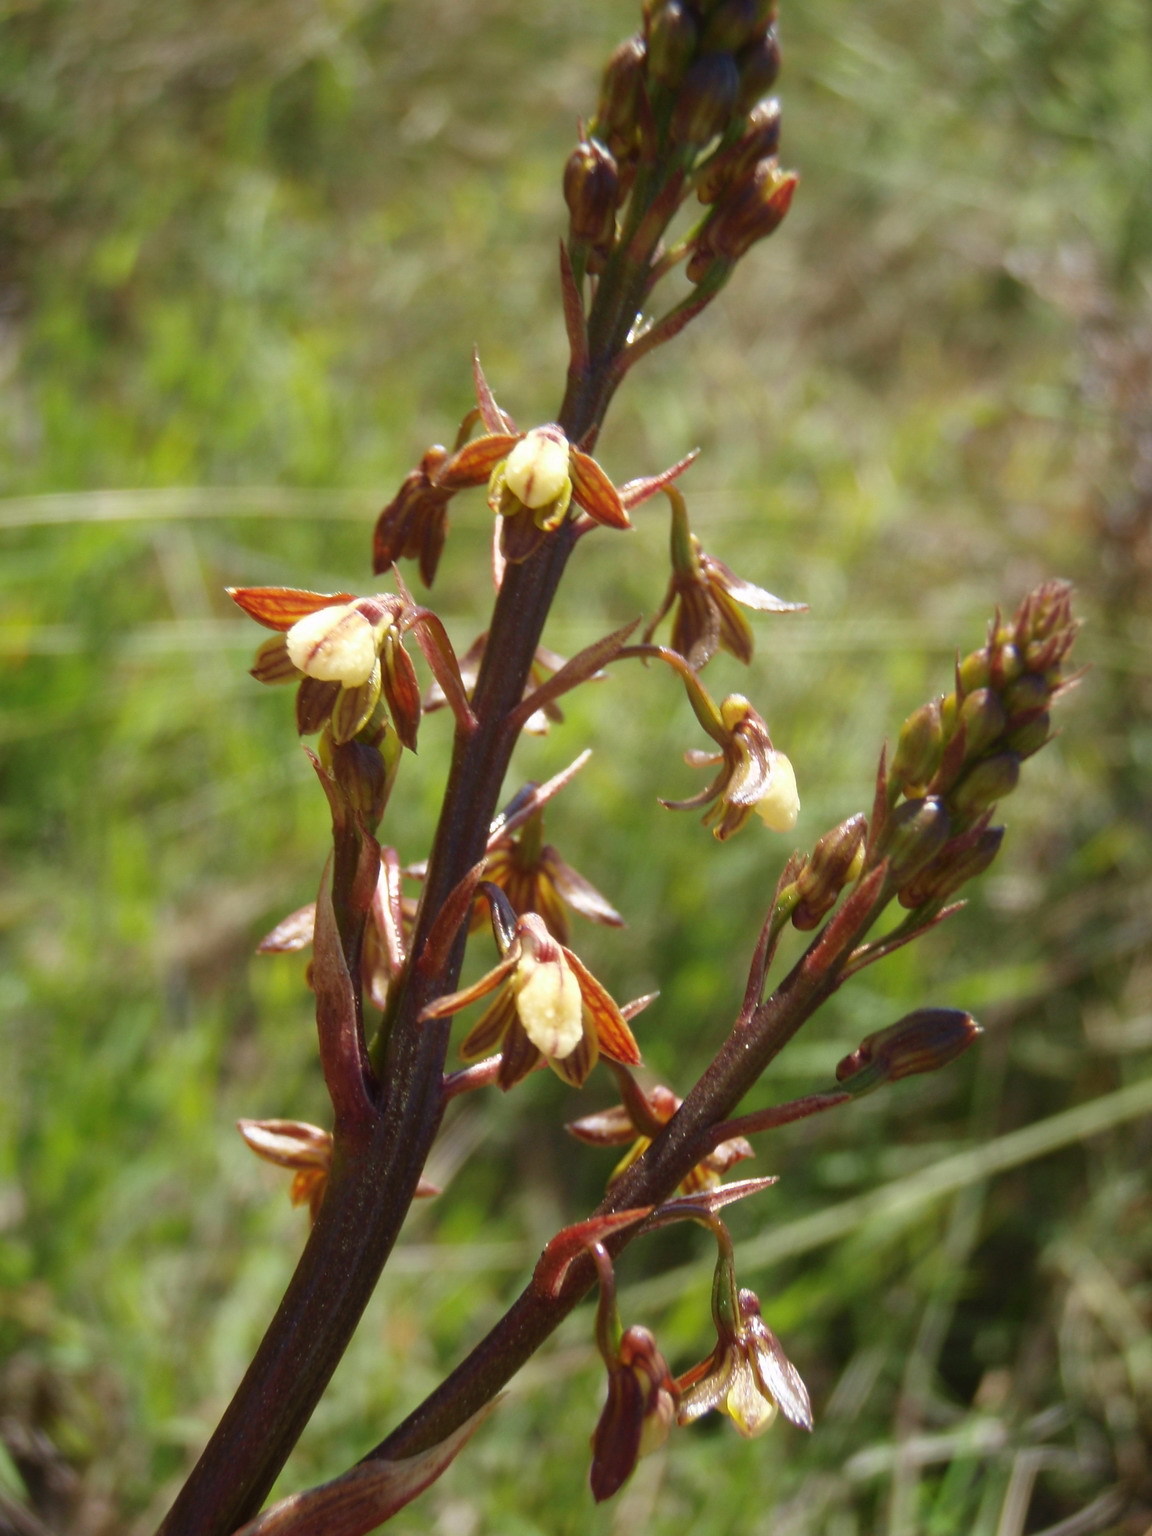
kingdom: Plantae
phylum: Tracheophyta
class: Liliopsida
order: Asparagales
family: Orchidaceae
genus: Eulophia
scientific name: Eulophia cochlearis
